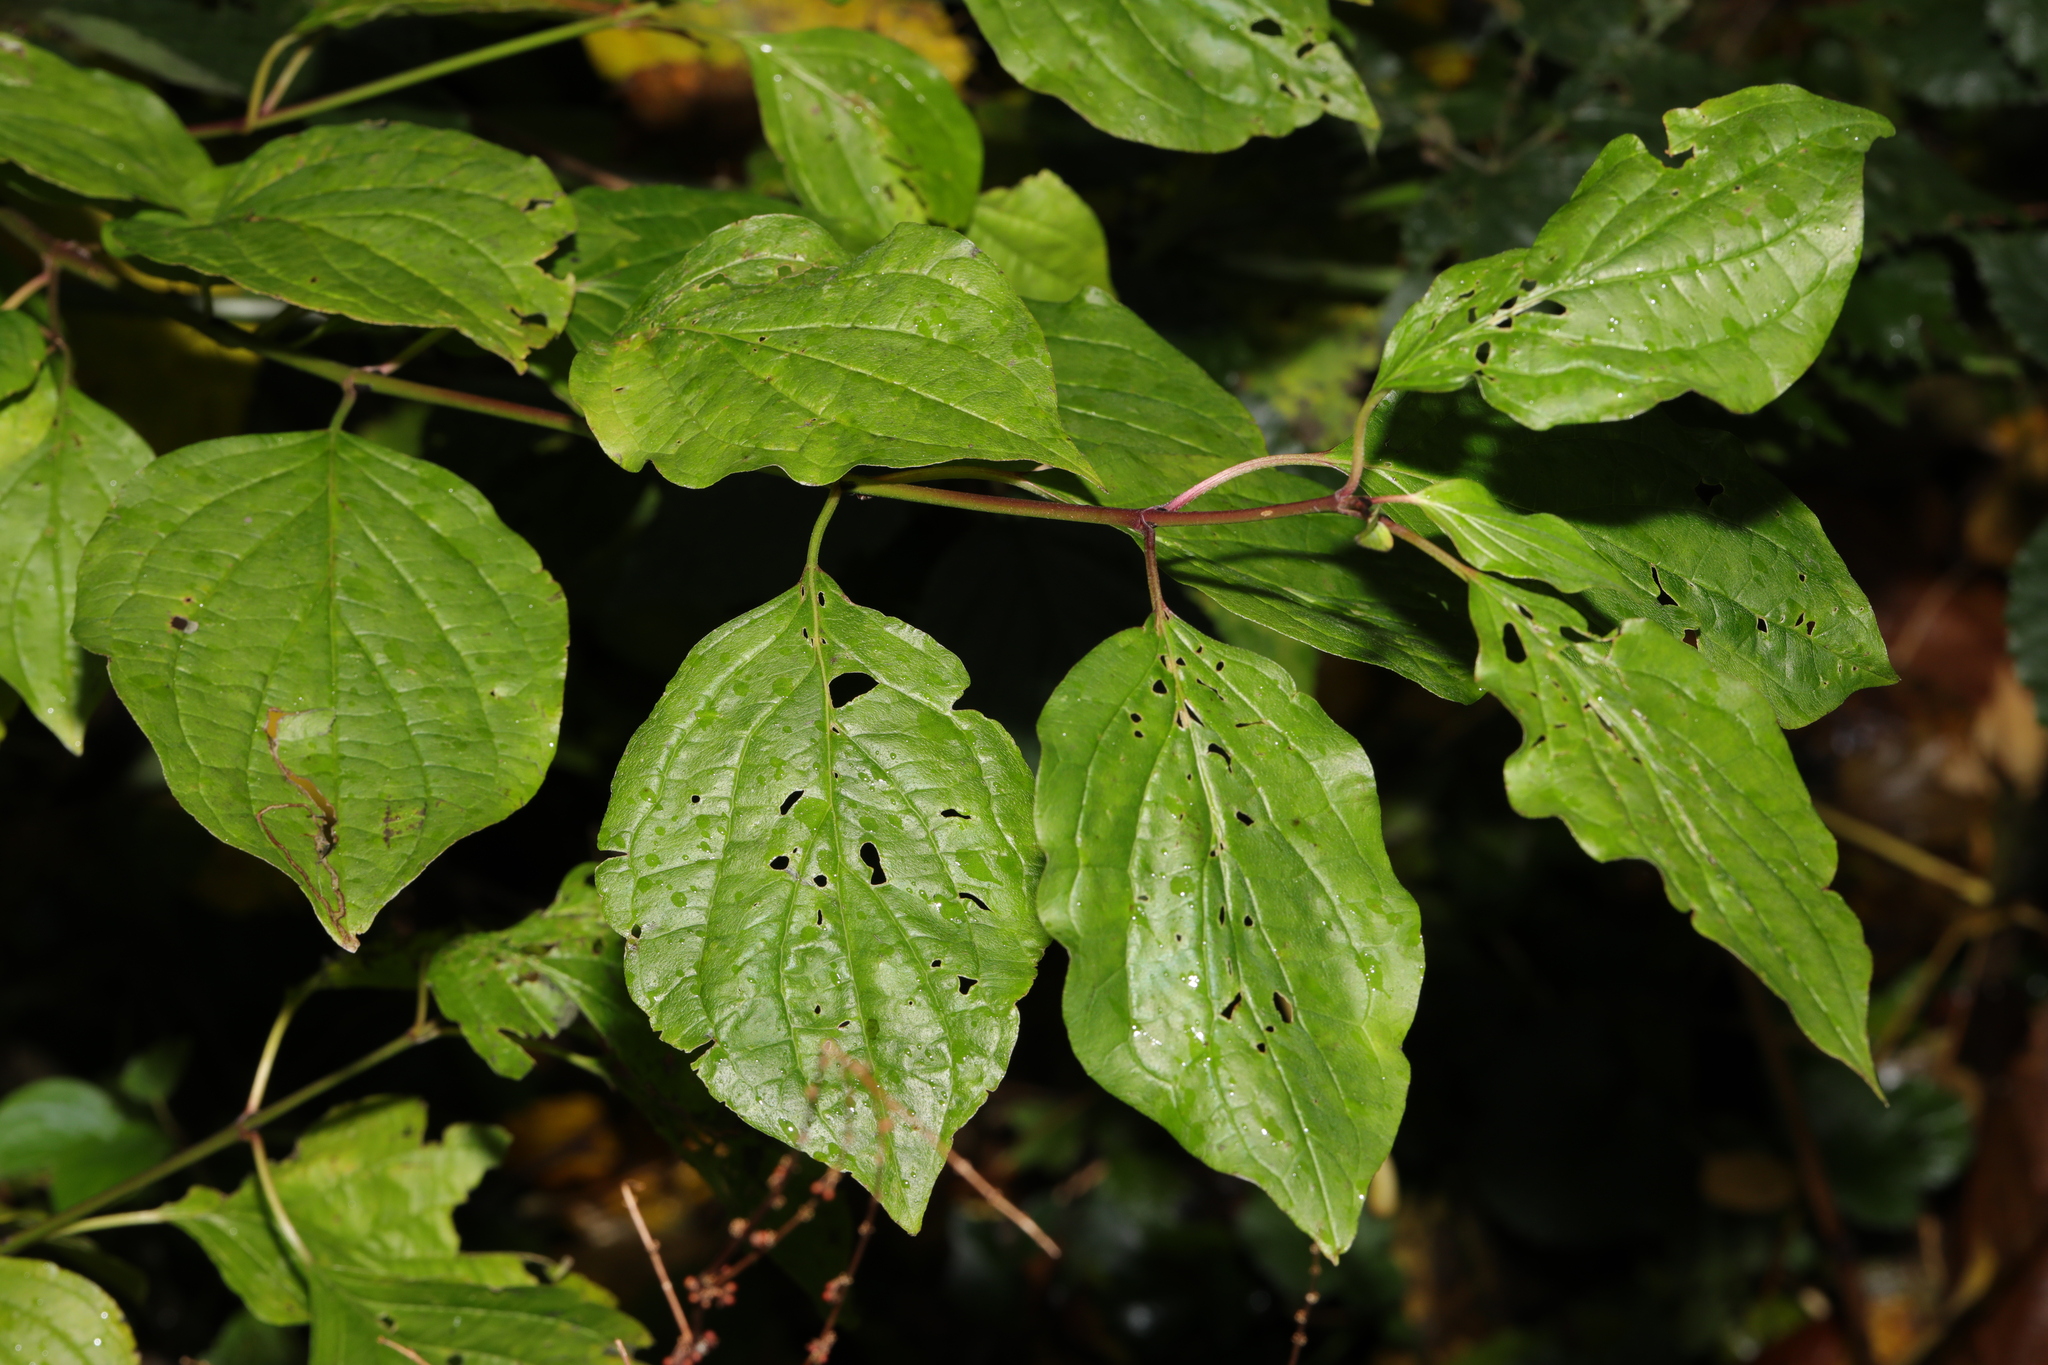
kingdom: Plantae
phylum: Tracheophyta
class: Magnoliopsida
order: Cornales
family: Cornaceae
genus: Cornus
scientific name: Cornus sanguinea
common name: Dogwood
